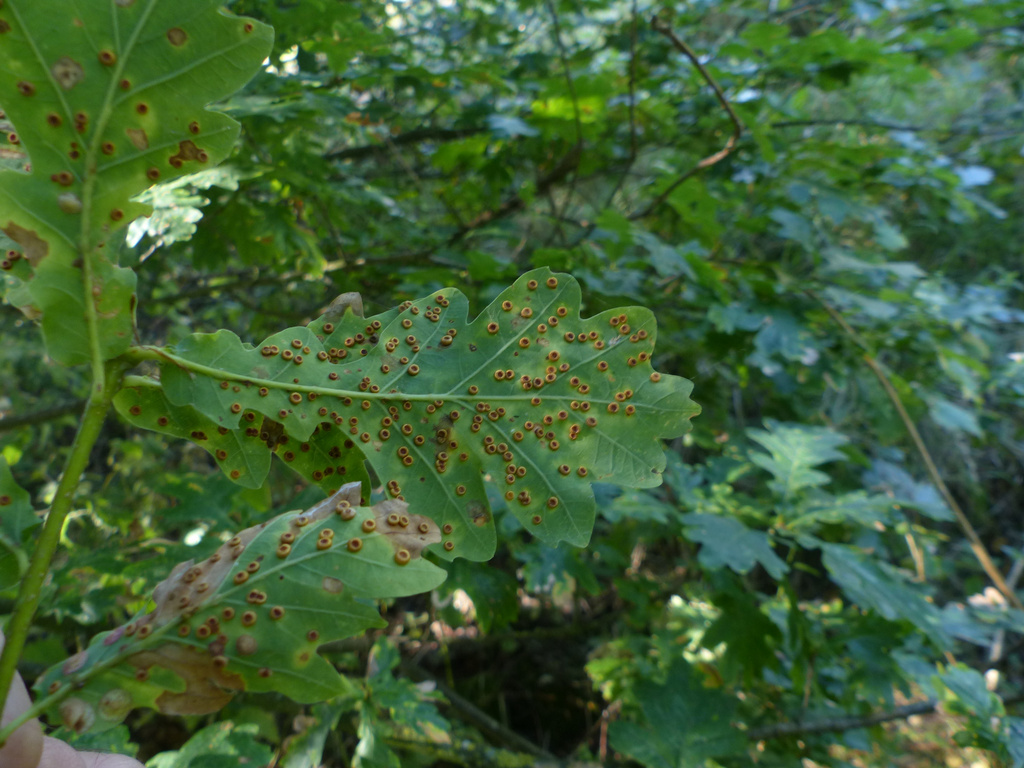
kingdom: Animalia
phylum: Arthropoda
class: Insecta
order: Hymenoptera
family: Cynipidae
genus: Neuroterus
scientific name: Neuroterus numismalis
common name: Silk-button spangle gall
